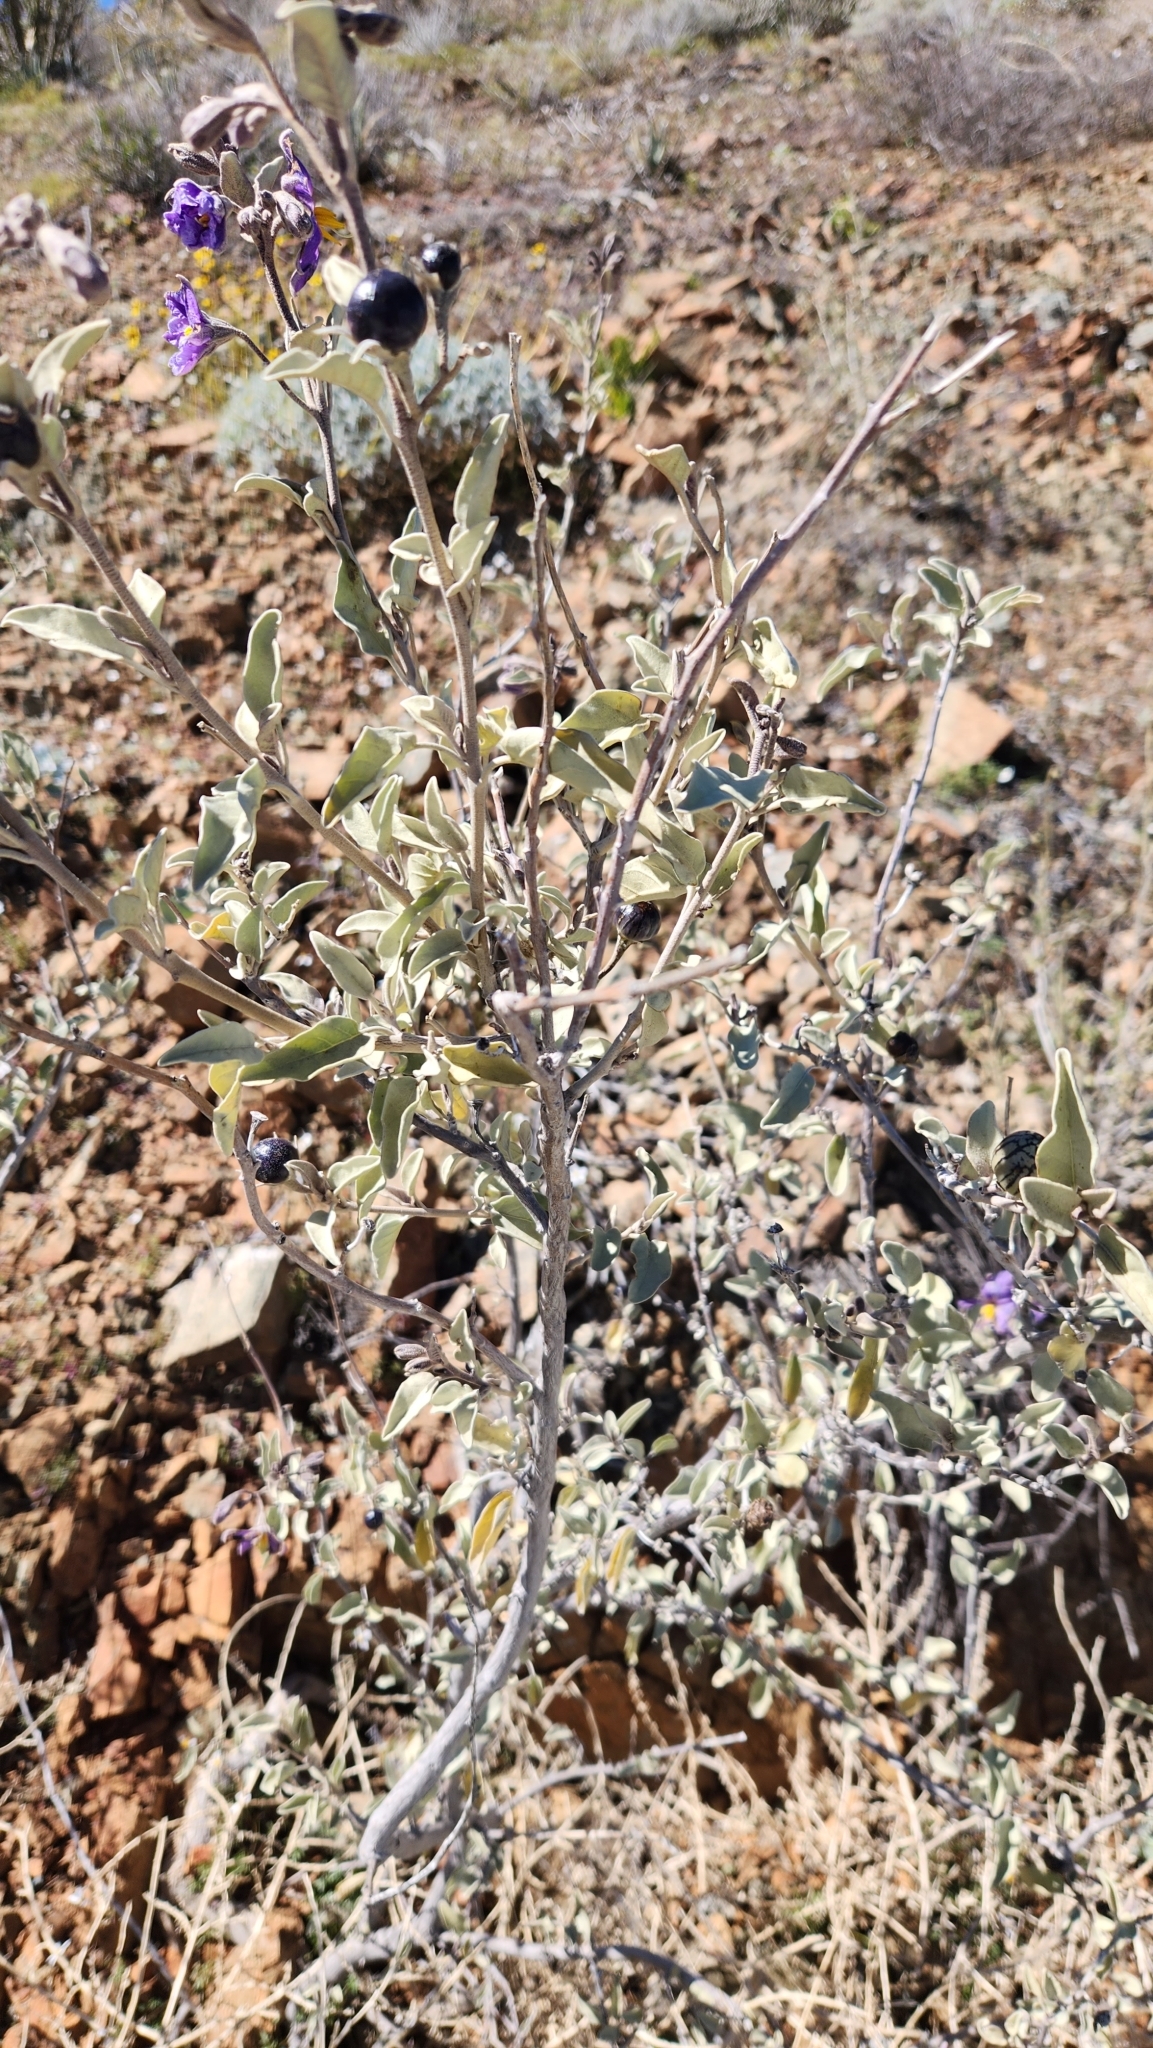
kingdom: Plantae
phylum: Tracheophyta
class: Magnoliopsida
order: Solanales
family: Solanaceae
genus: Solanum
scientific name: Solanum hindsianum
